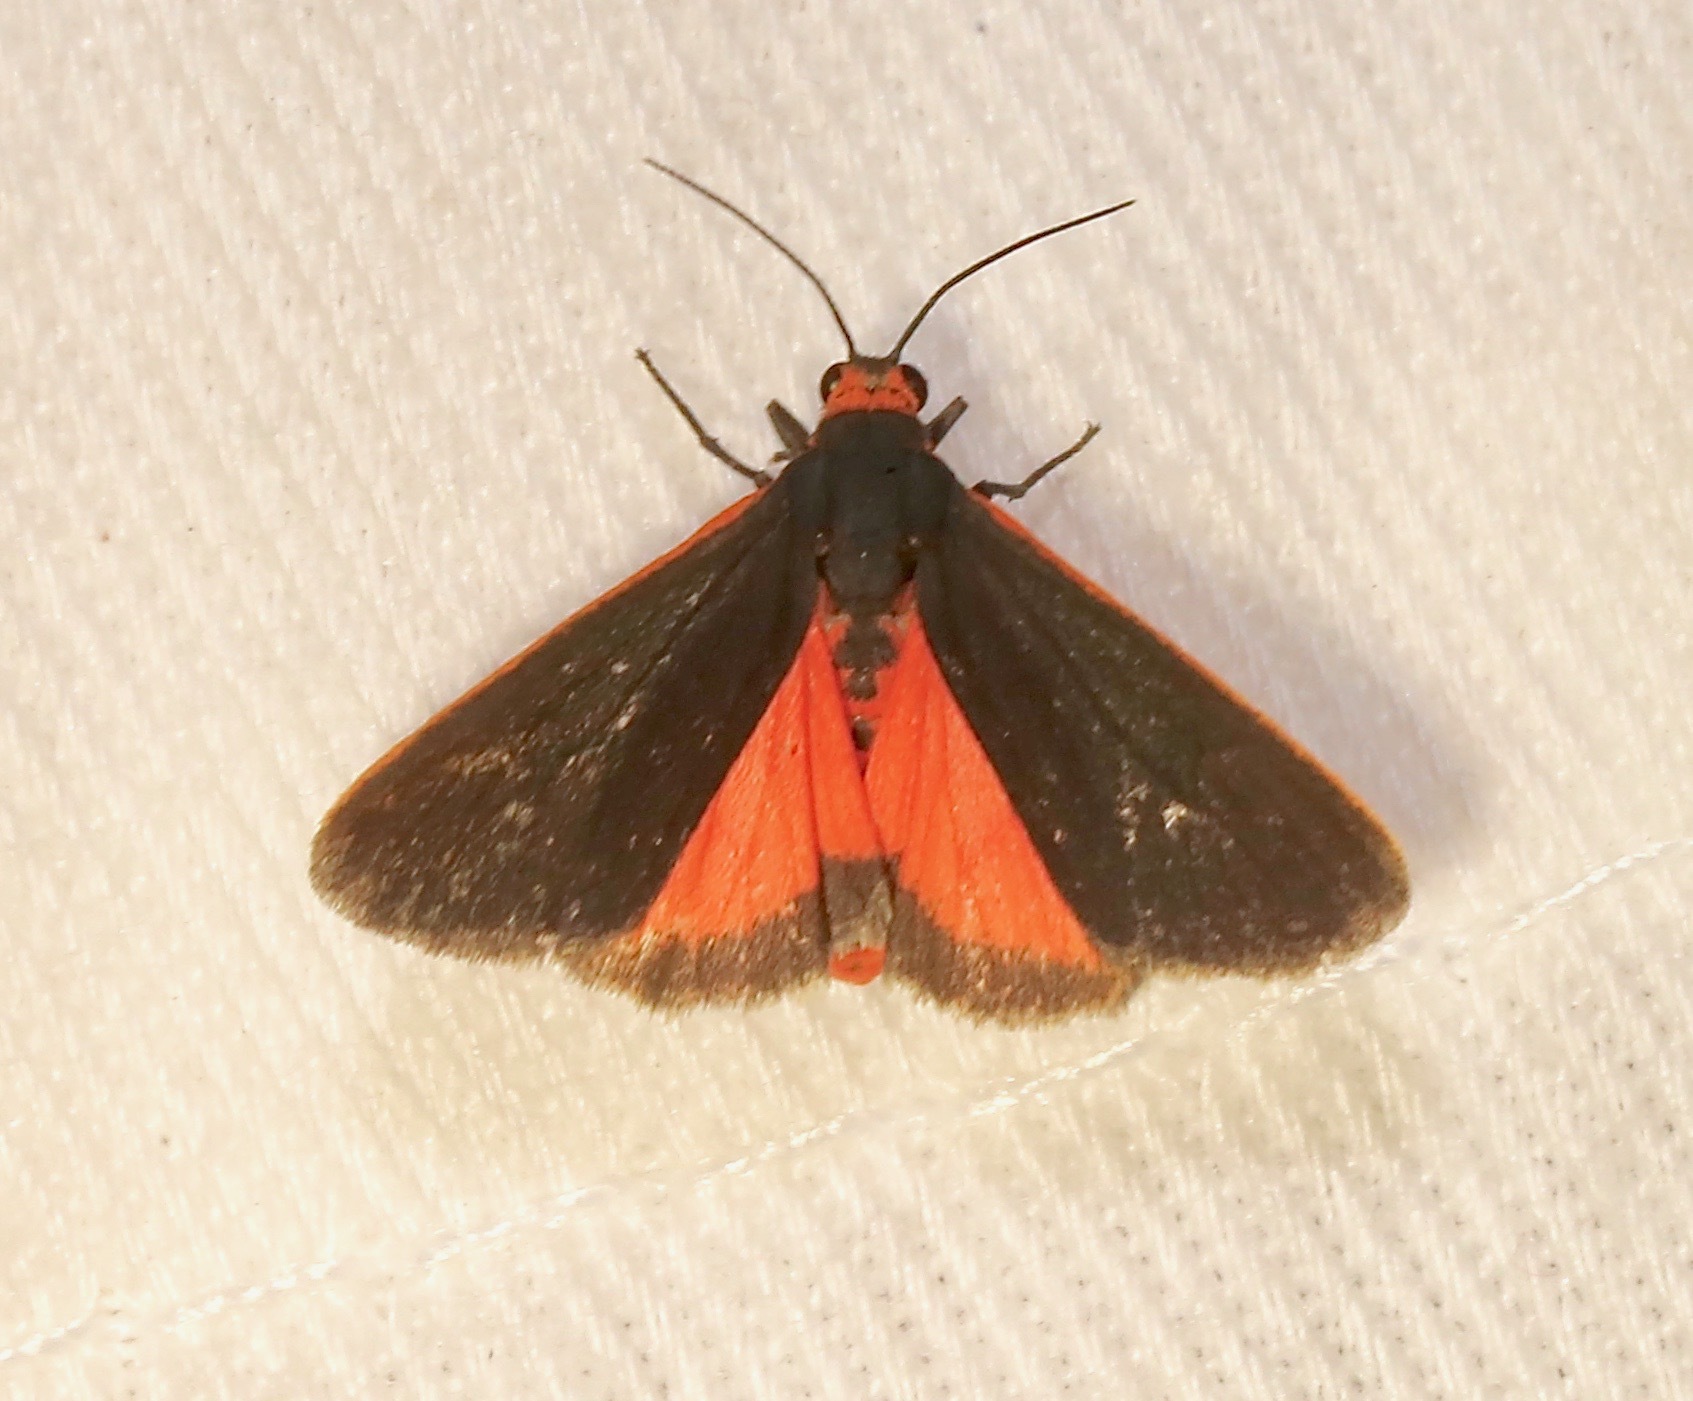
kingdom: Animalia
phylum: Arthropoda
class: Insecta
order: Lepidoptera
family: Erebidae
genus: Virbia
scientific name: Virbia laeta
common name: Joyful holomelina moth
